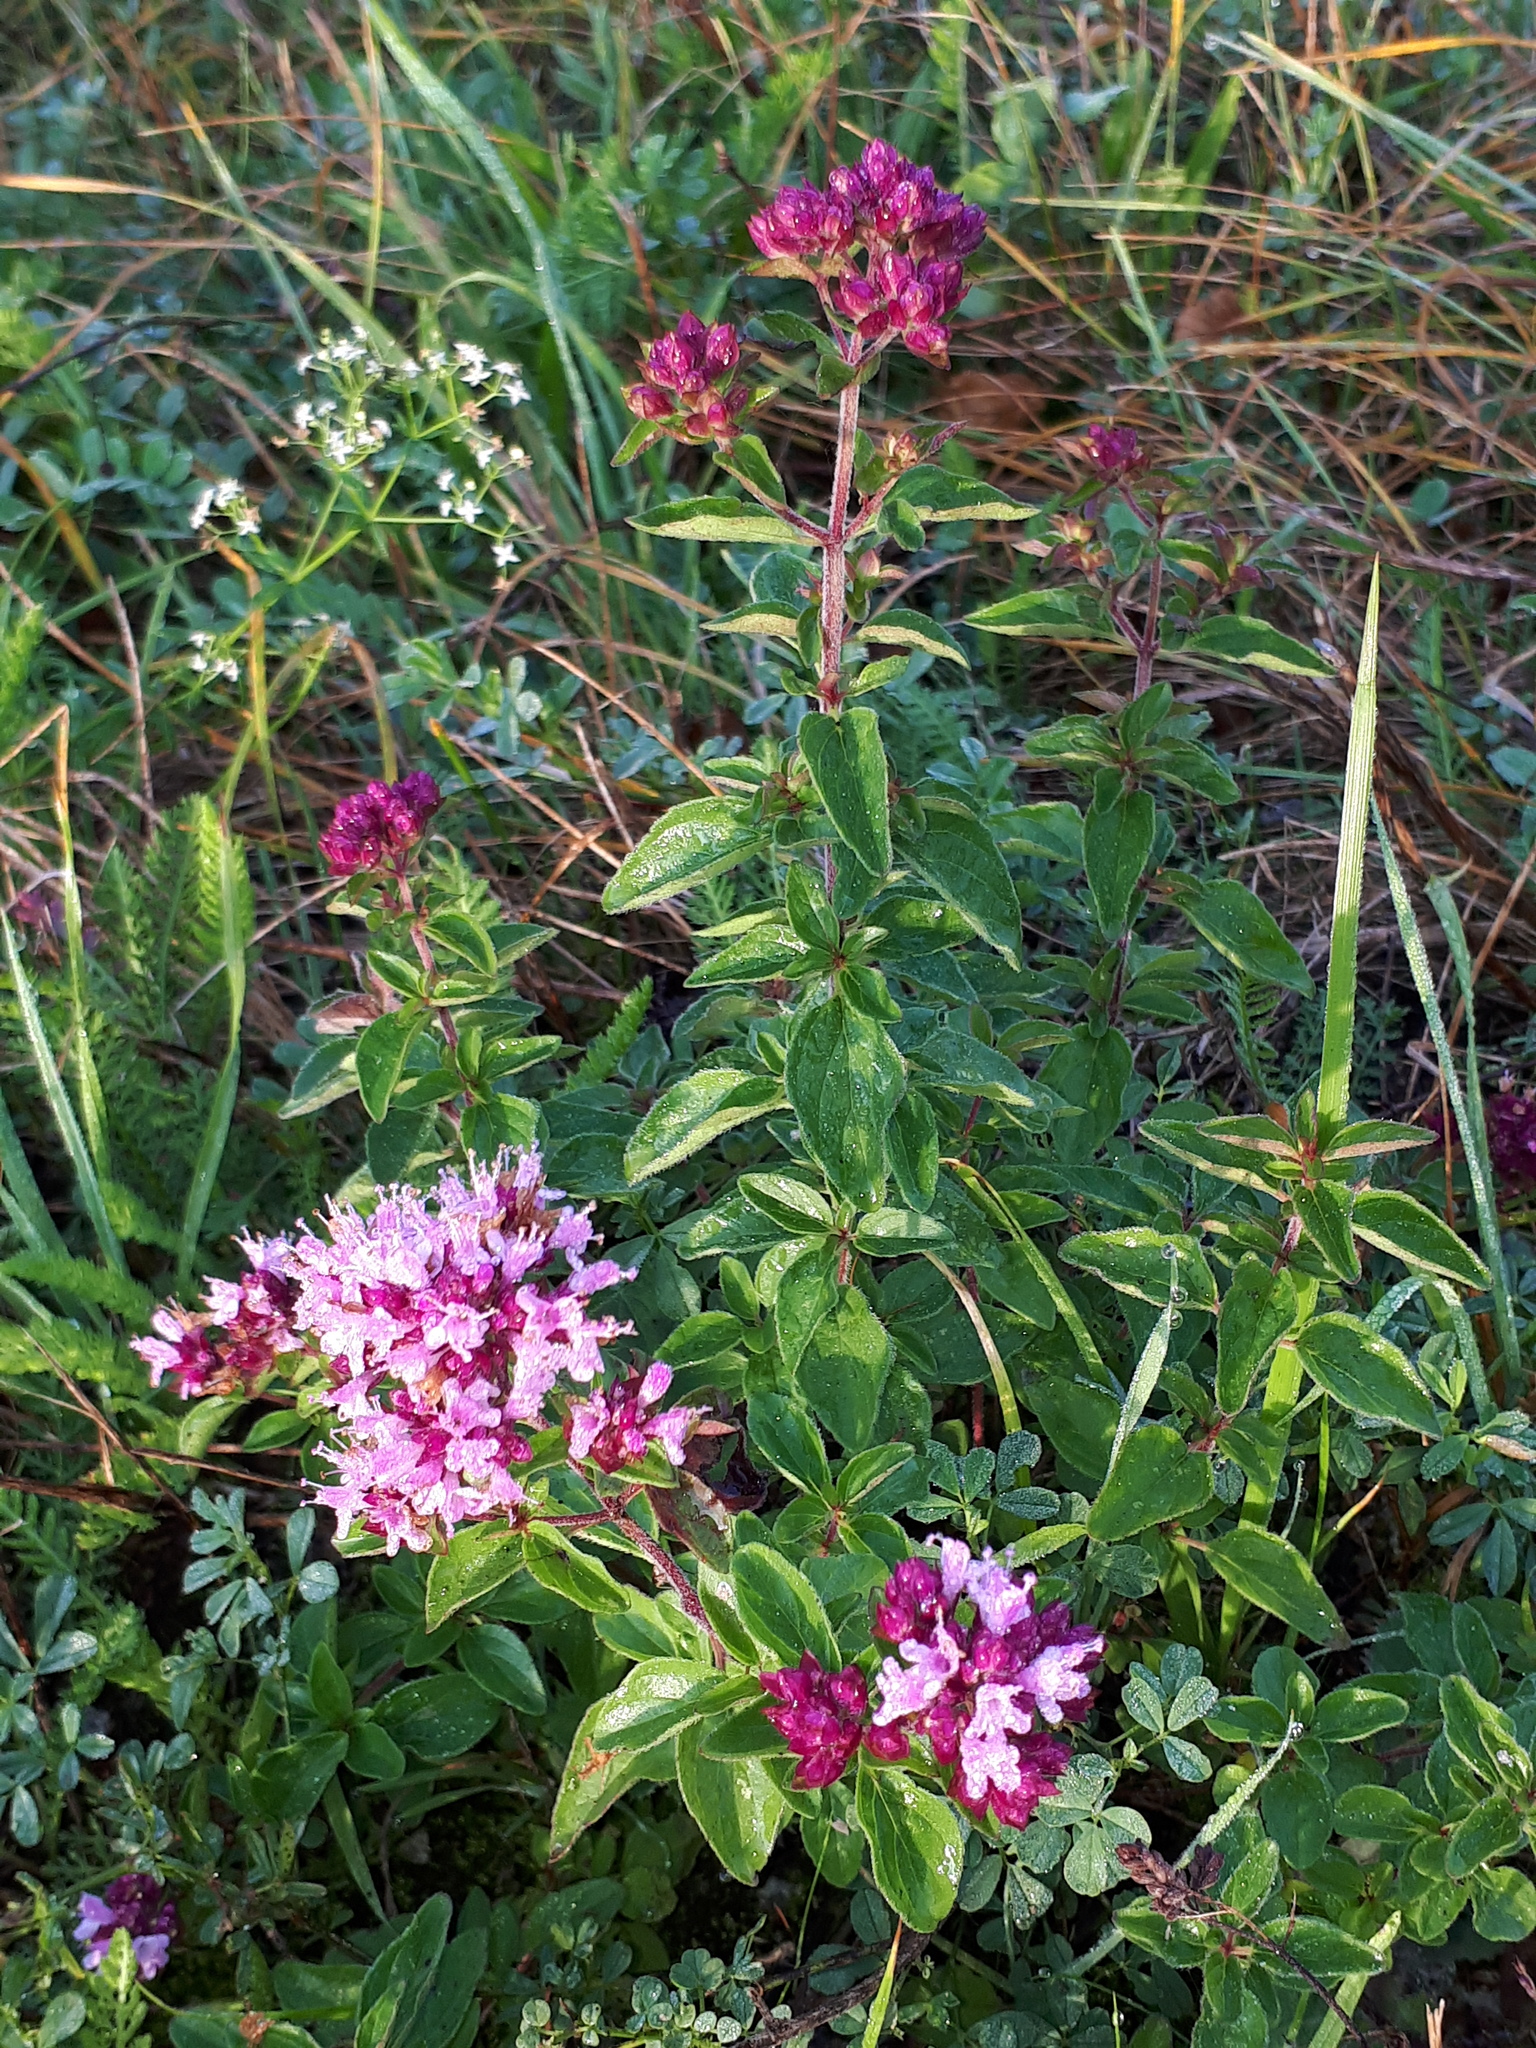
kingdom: Plantae
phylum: Tracheophyta
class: Magnoliopsida
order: Lamiales
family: Lamiaceae
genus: Origanum
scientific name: Origanum vulgare
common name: Wild marjoram
